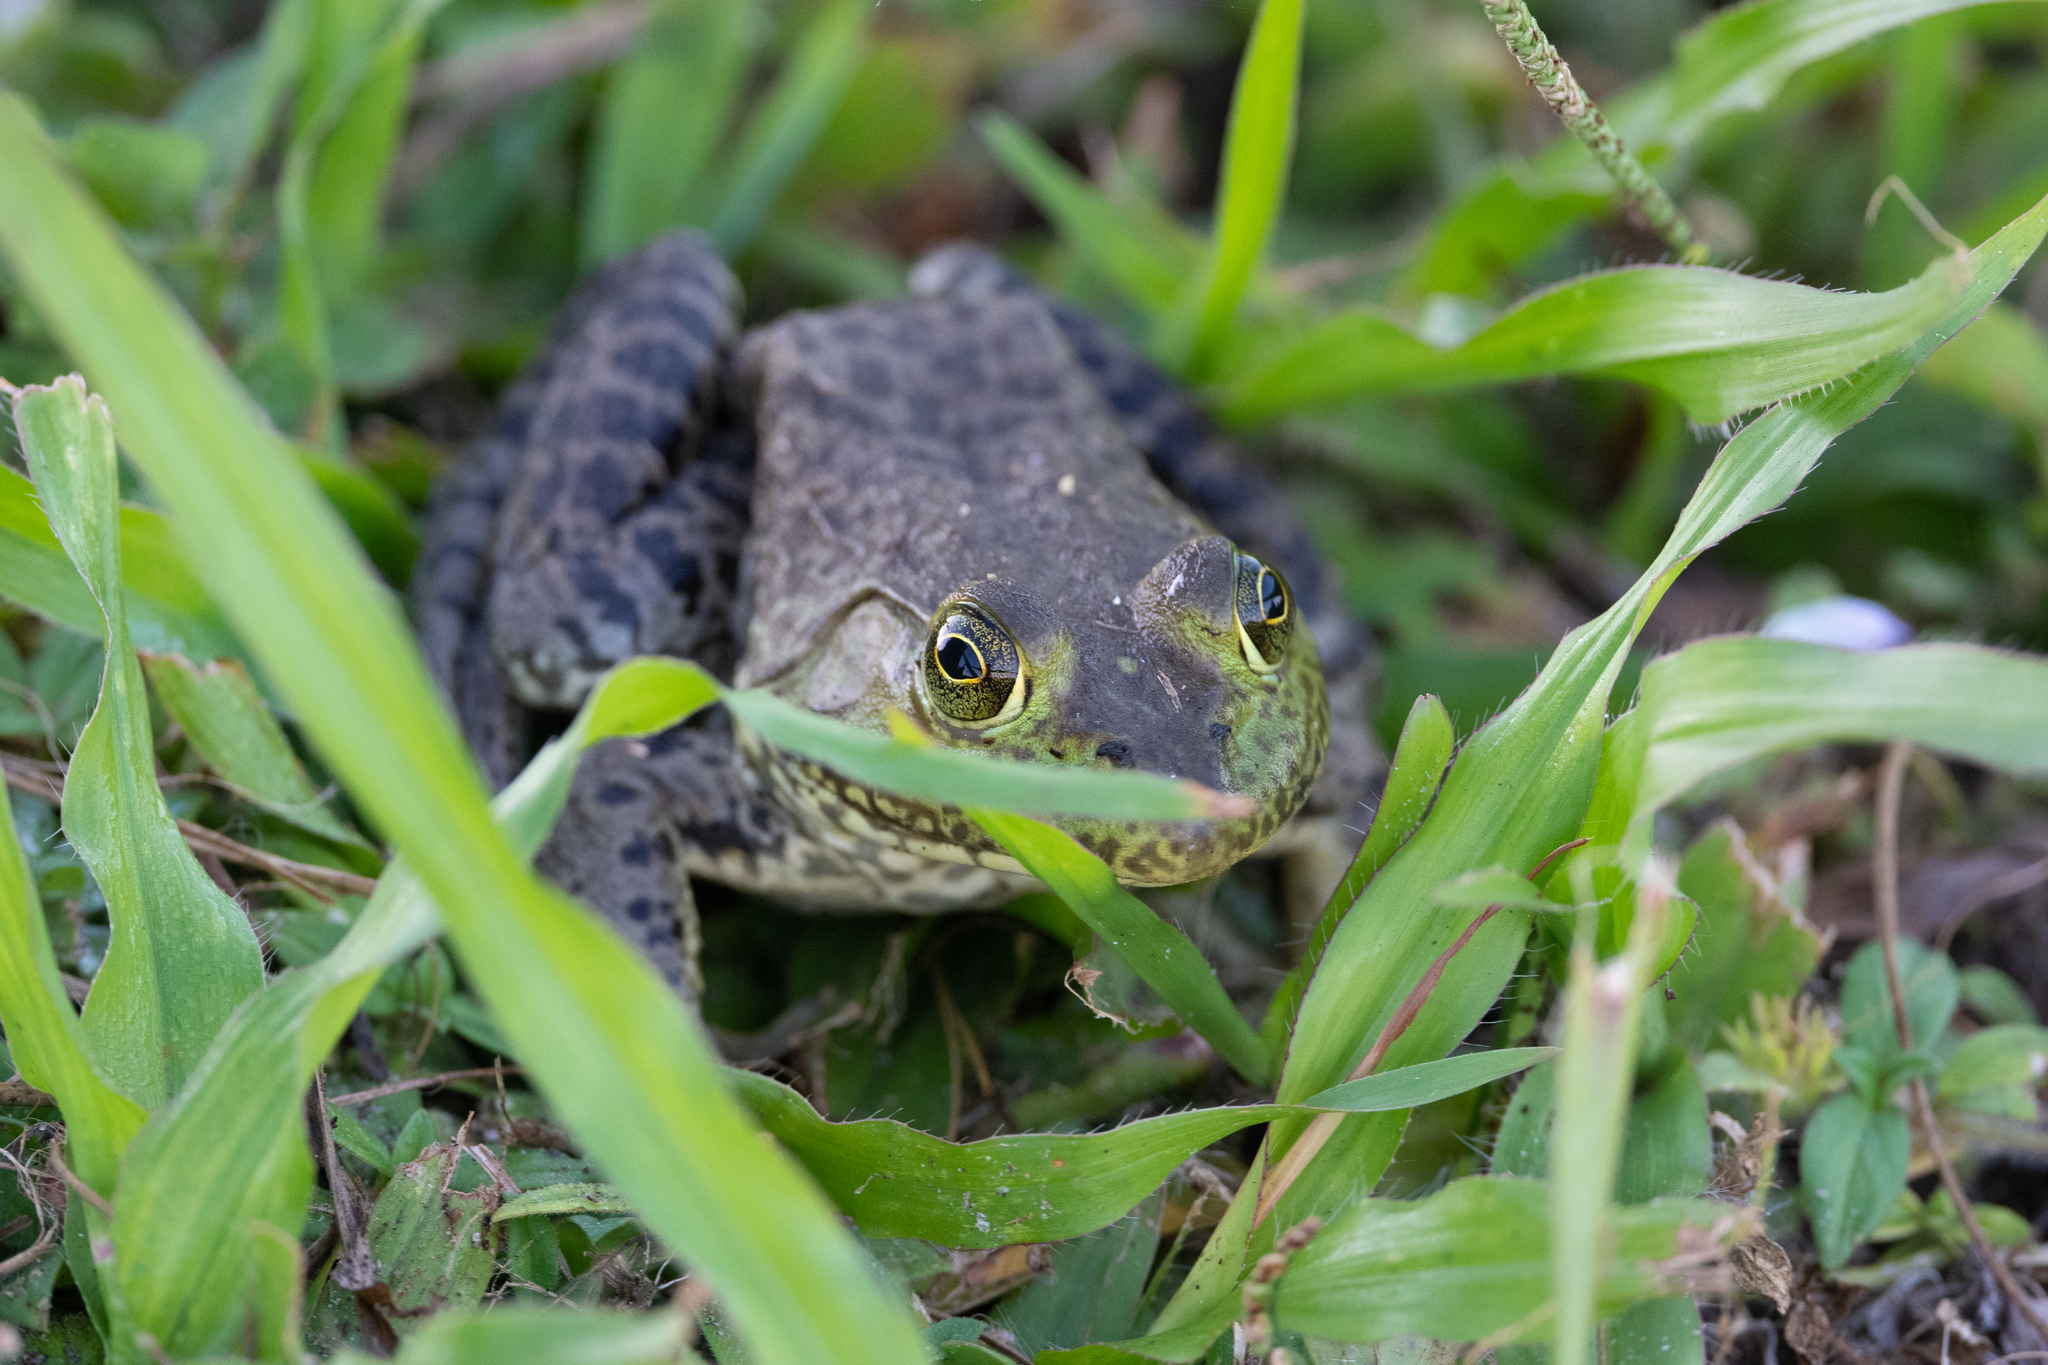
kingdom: Animalia
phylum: Chordata
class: Amphibia
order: Anura
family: Ranidae
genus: Lithobates
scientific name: Lithobates catesbeianus
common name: American bullfrog
